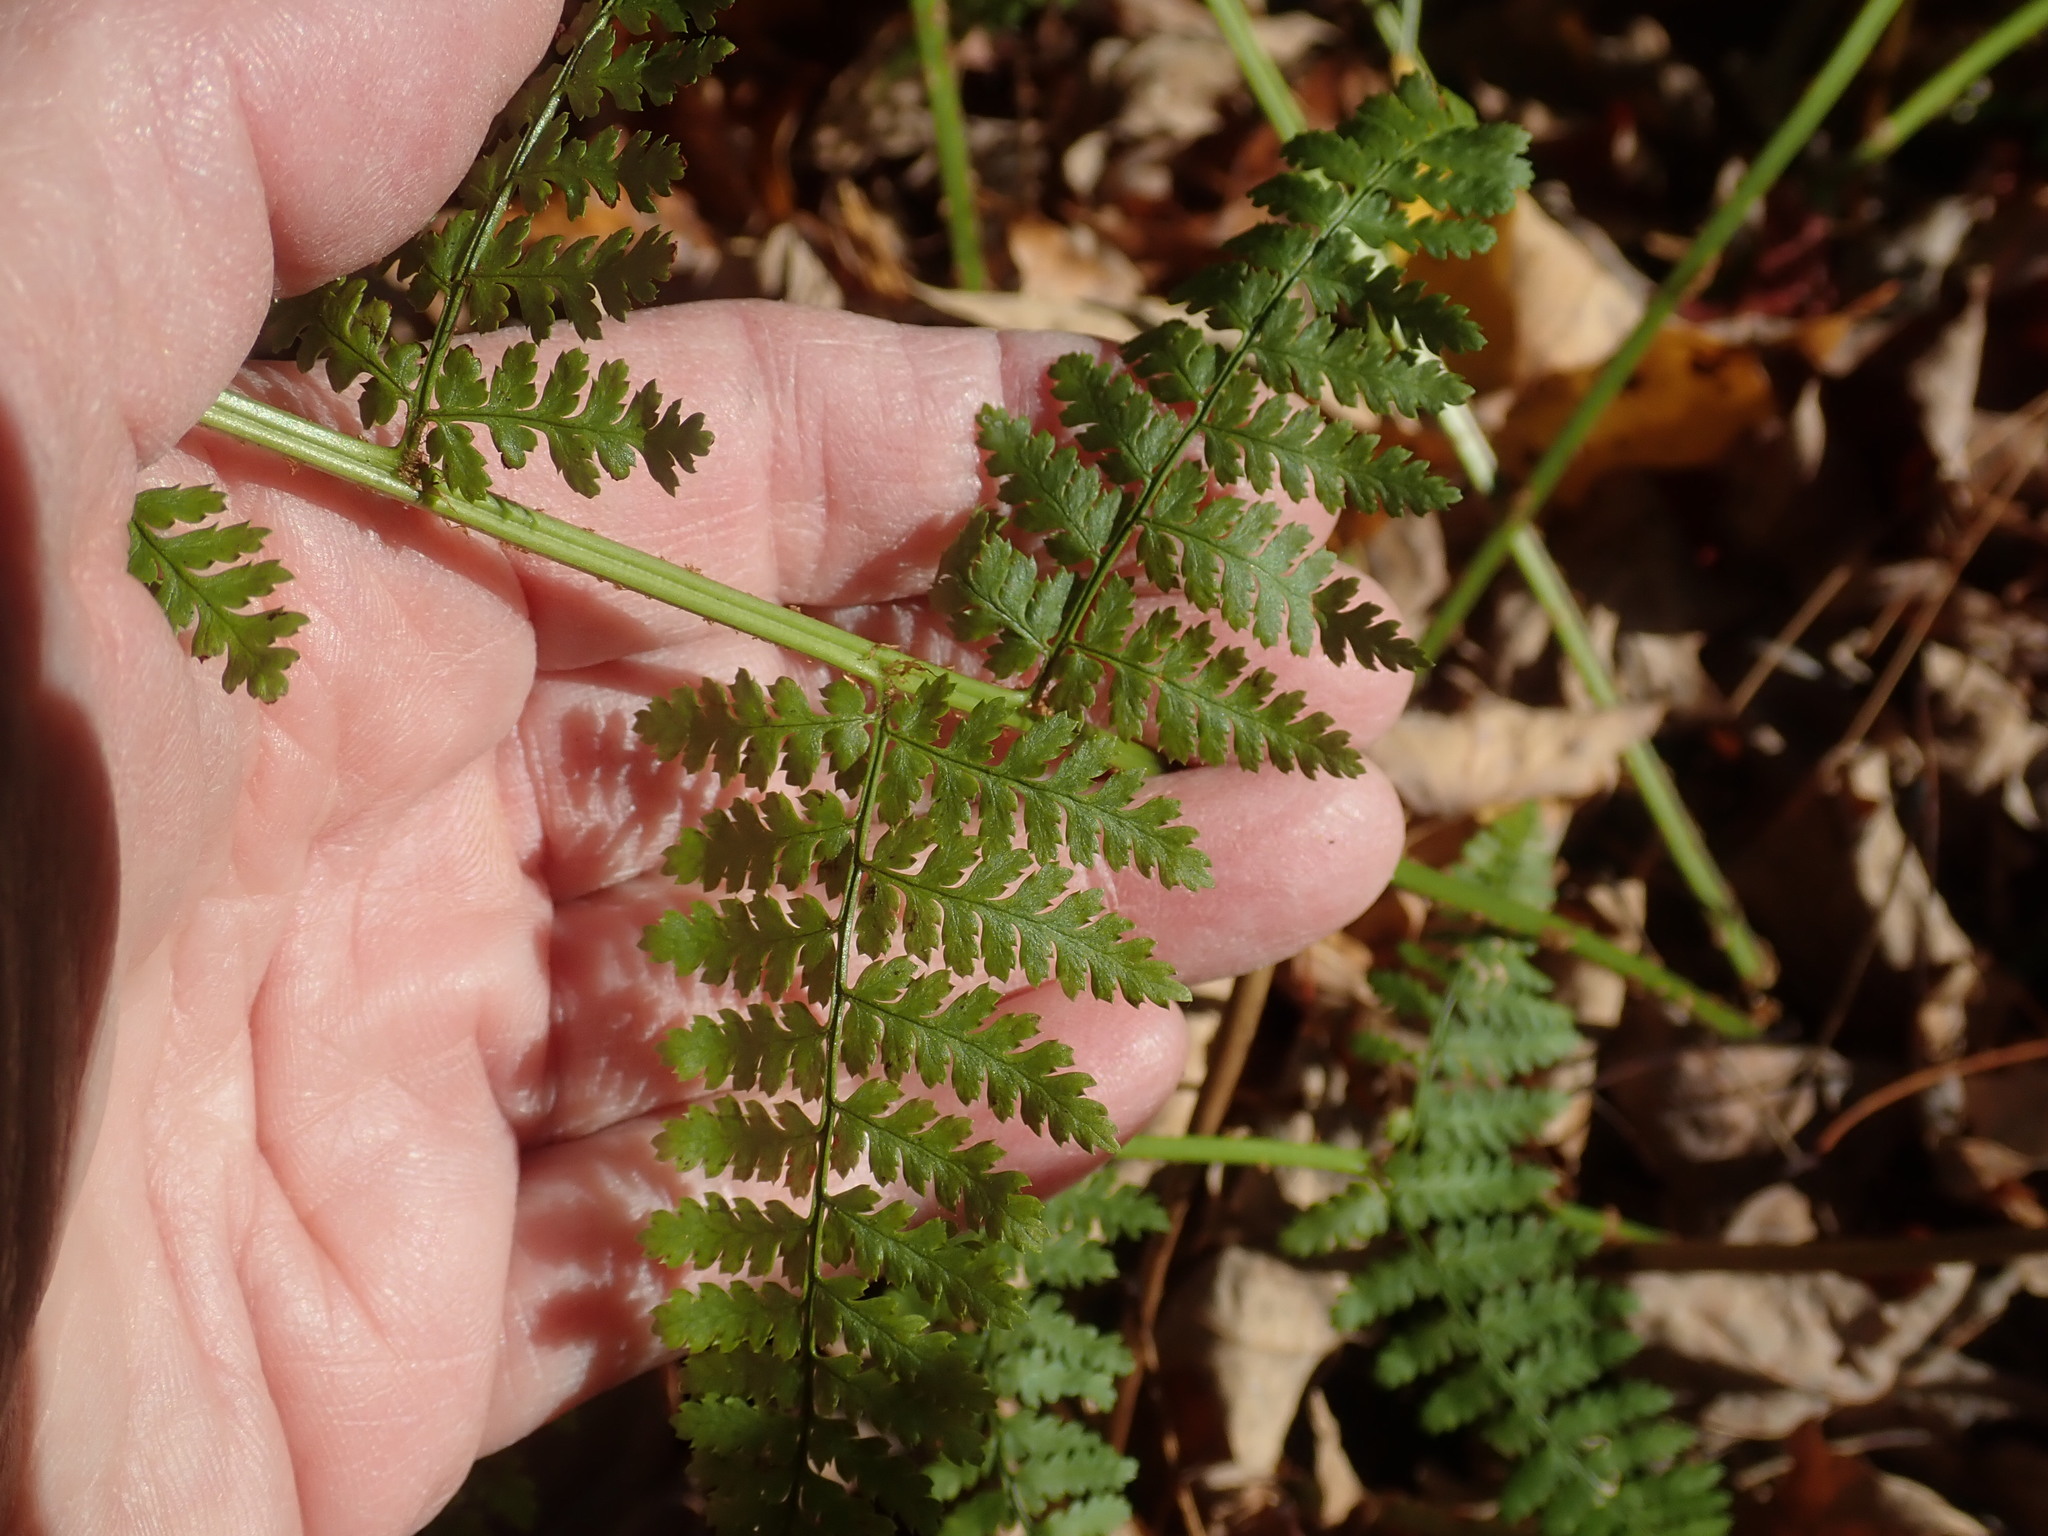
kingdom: Plantae
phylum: Tracheophyta
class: Polypodiopsida
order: Polypodiales
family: Dryopteridaceae
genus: Dryopteris
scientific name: Dryopteris intermedia
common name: Evergreen wood fern
